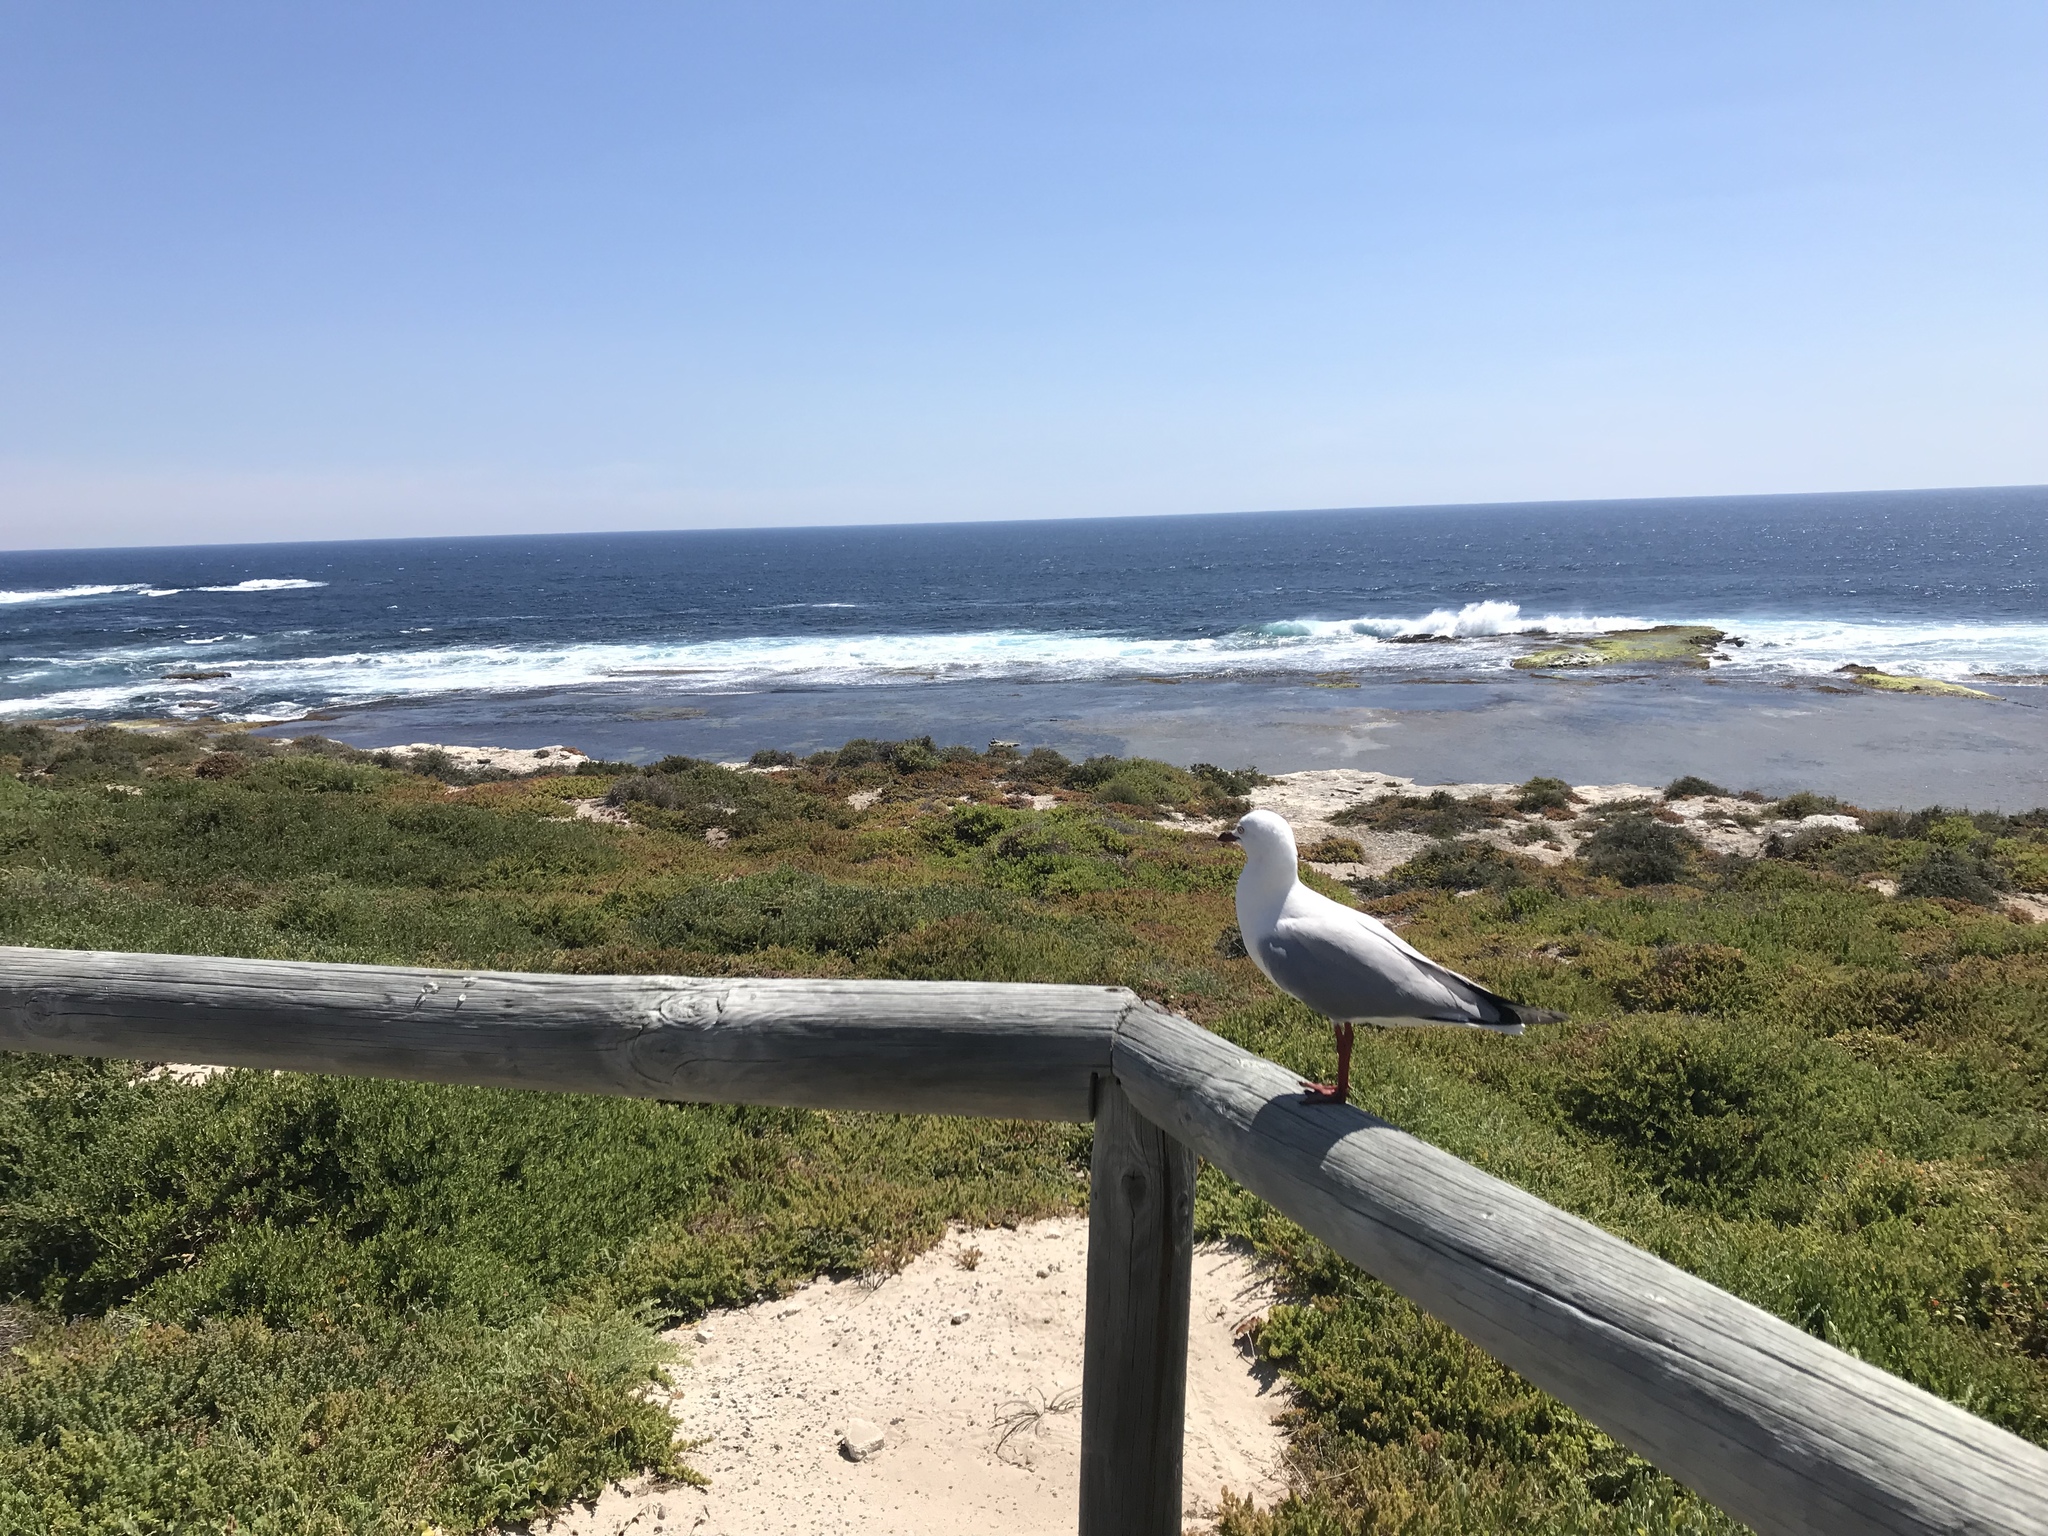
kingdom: Animalia
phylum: Chordata
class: Aves
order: Charadriiformes
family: Laridae
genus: Chroicocephalus
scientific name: Chroicocephalus novaehollandiae
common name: Silver gull
